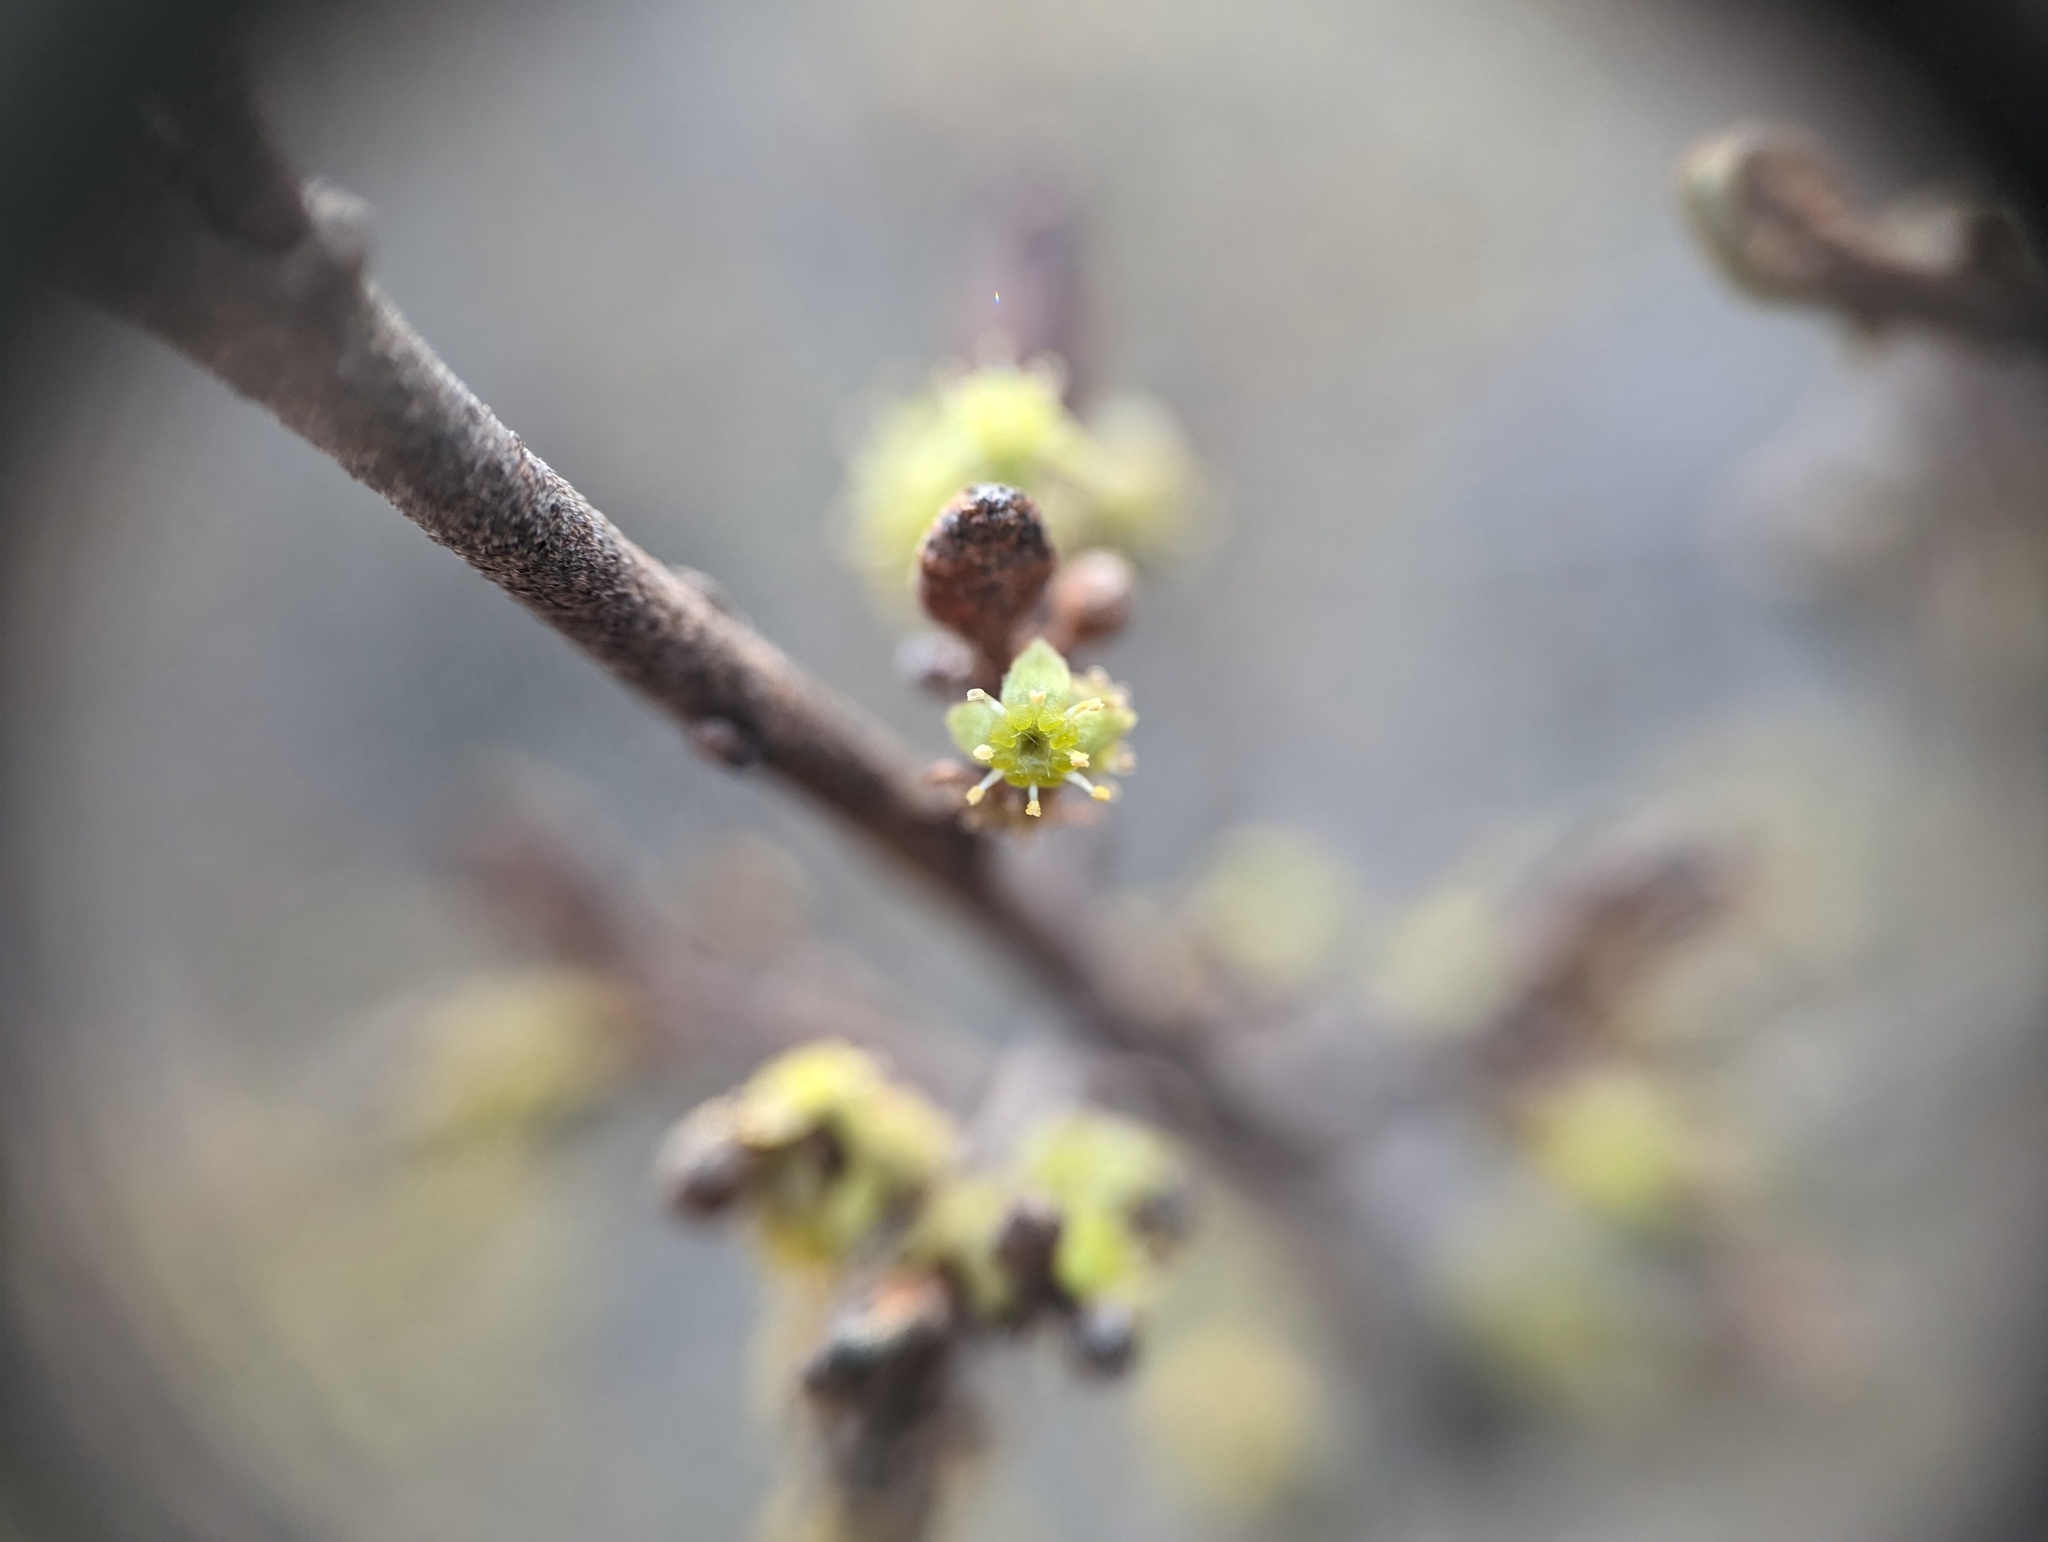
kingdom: Plantae
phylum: Tracheophyta
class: Magnoliopsida
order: Rosales
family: Elaeagnaceae
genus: Shepherdia
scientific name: Shepherdia canadensis
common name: Soapberry
